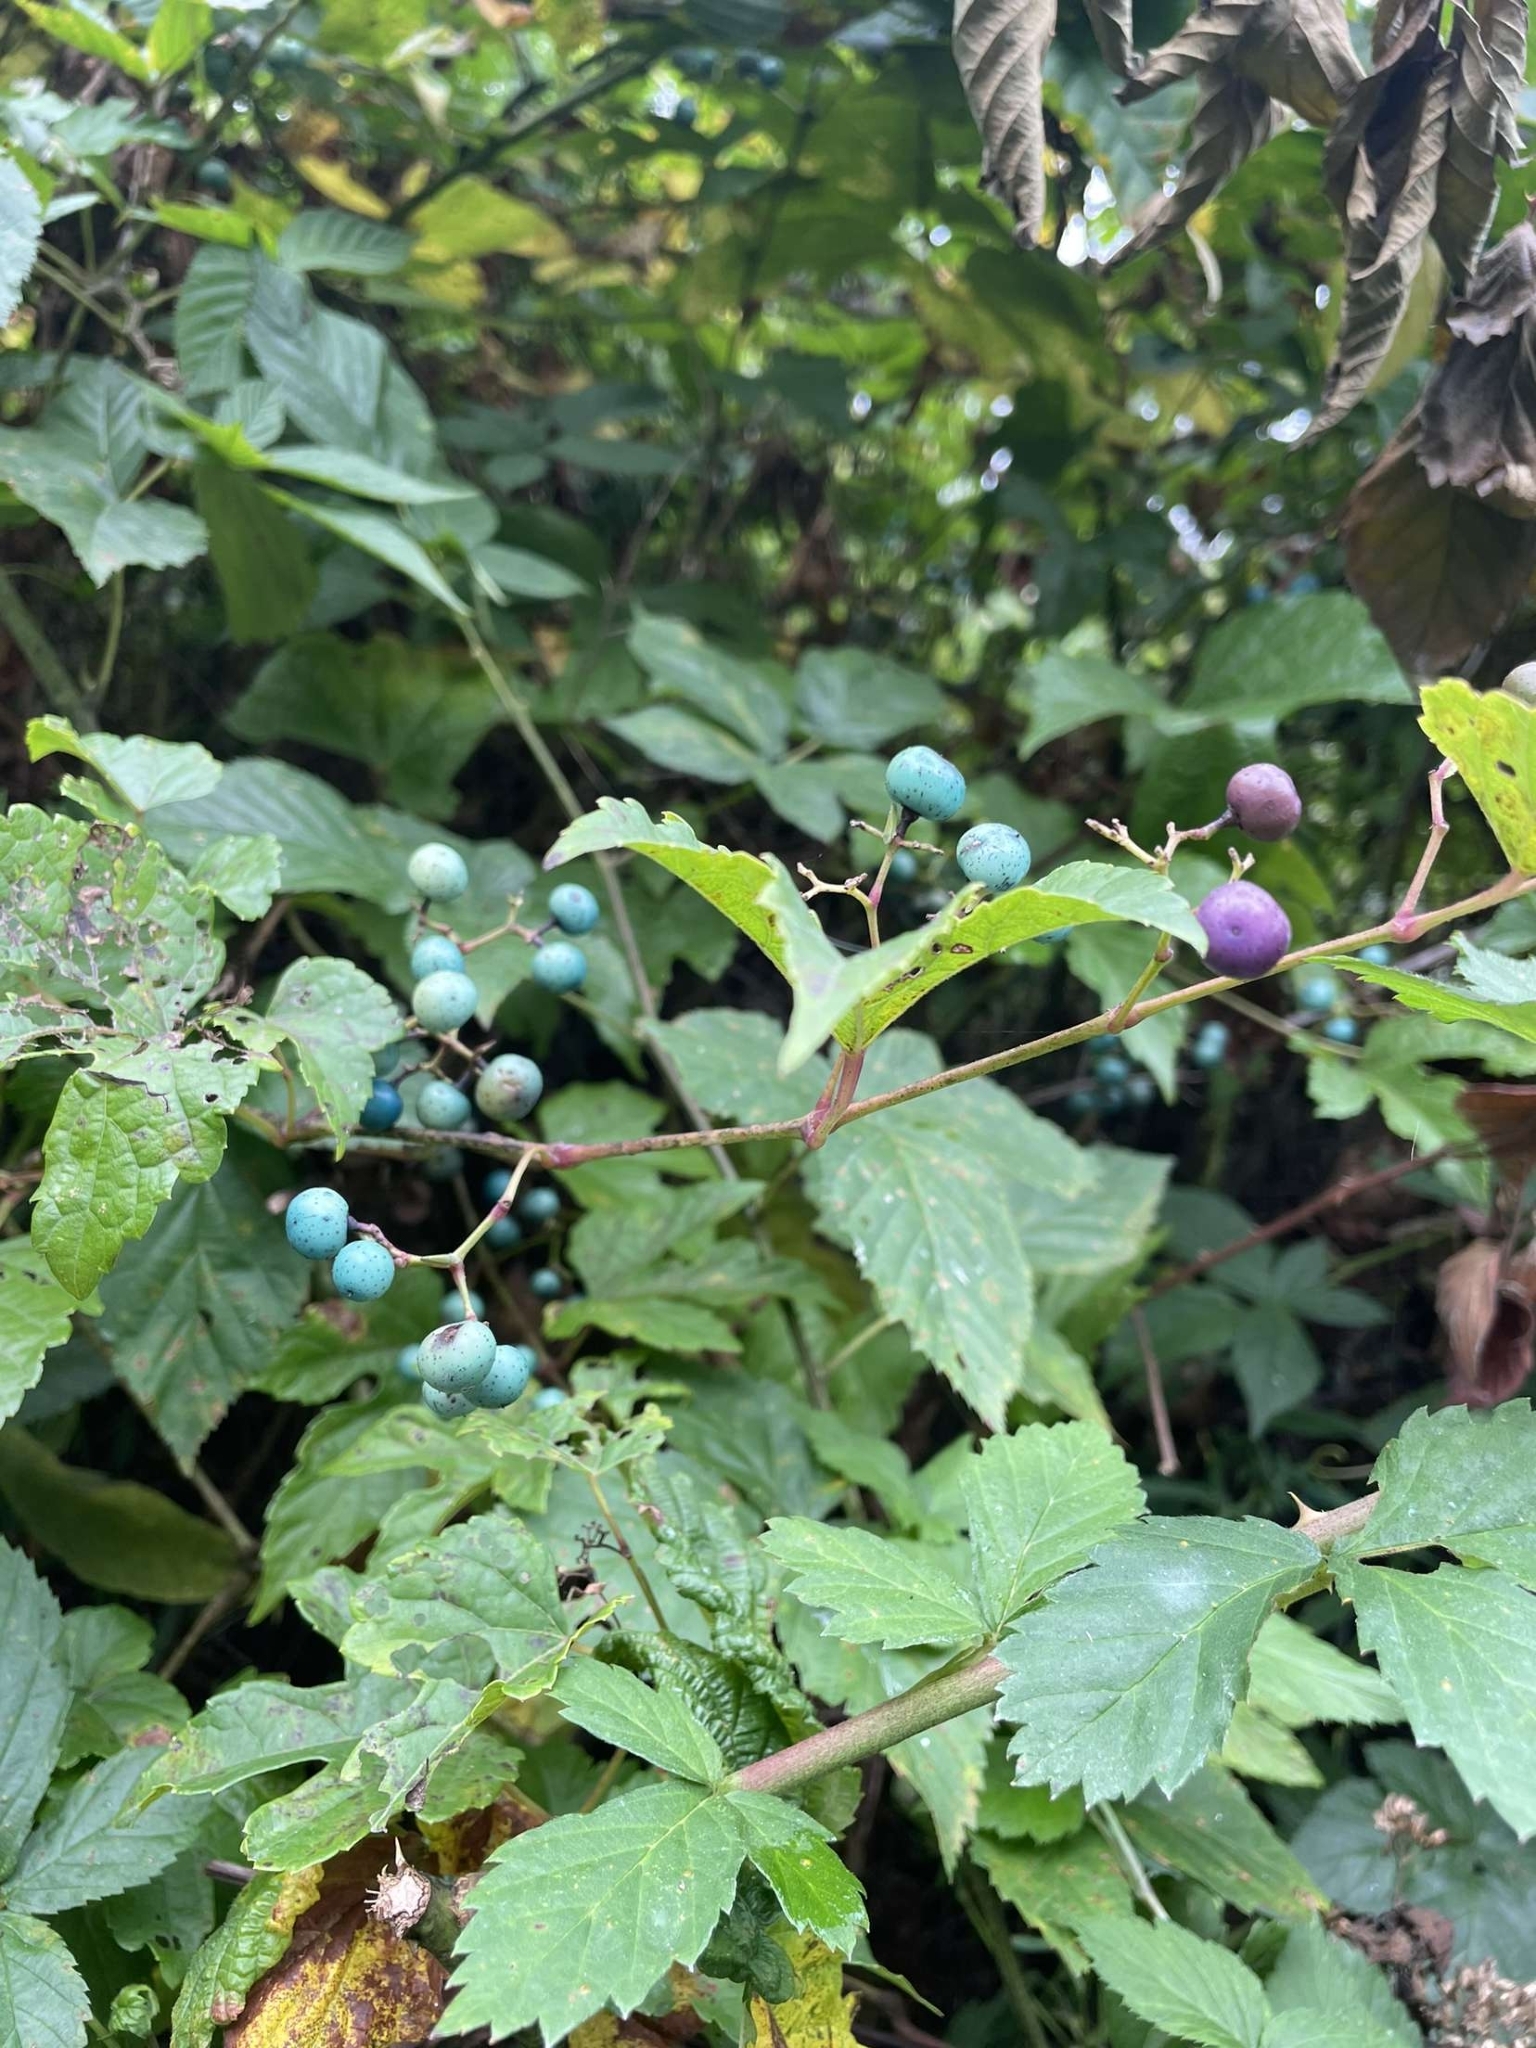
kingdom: Plantae
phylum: Tracheophyta
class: Magnoliopsida
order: Vitales
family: Vitaceae
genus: Ampelopsis
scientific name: Ampelopsis glandulosa
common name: Amur peppervine
